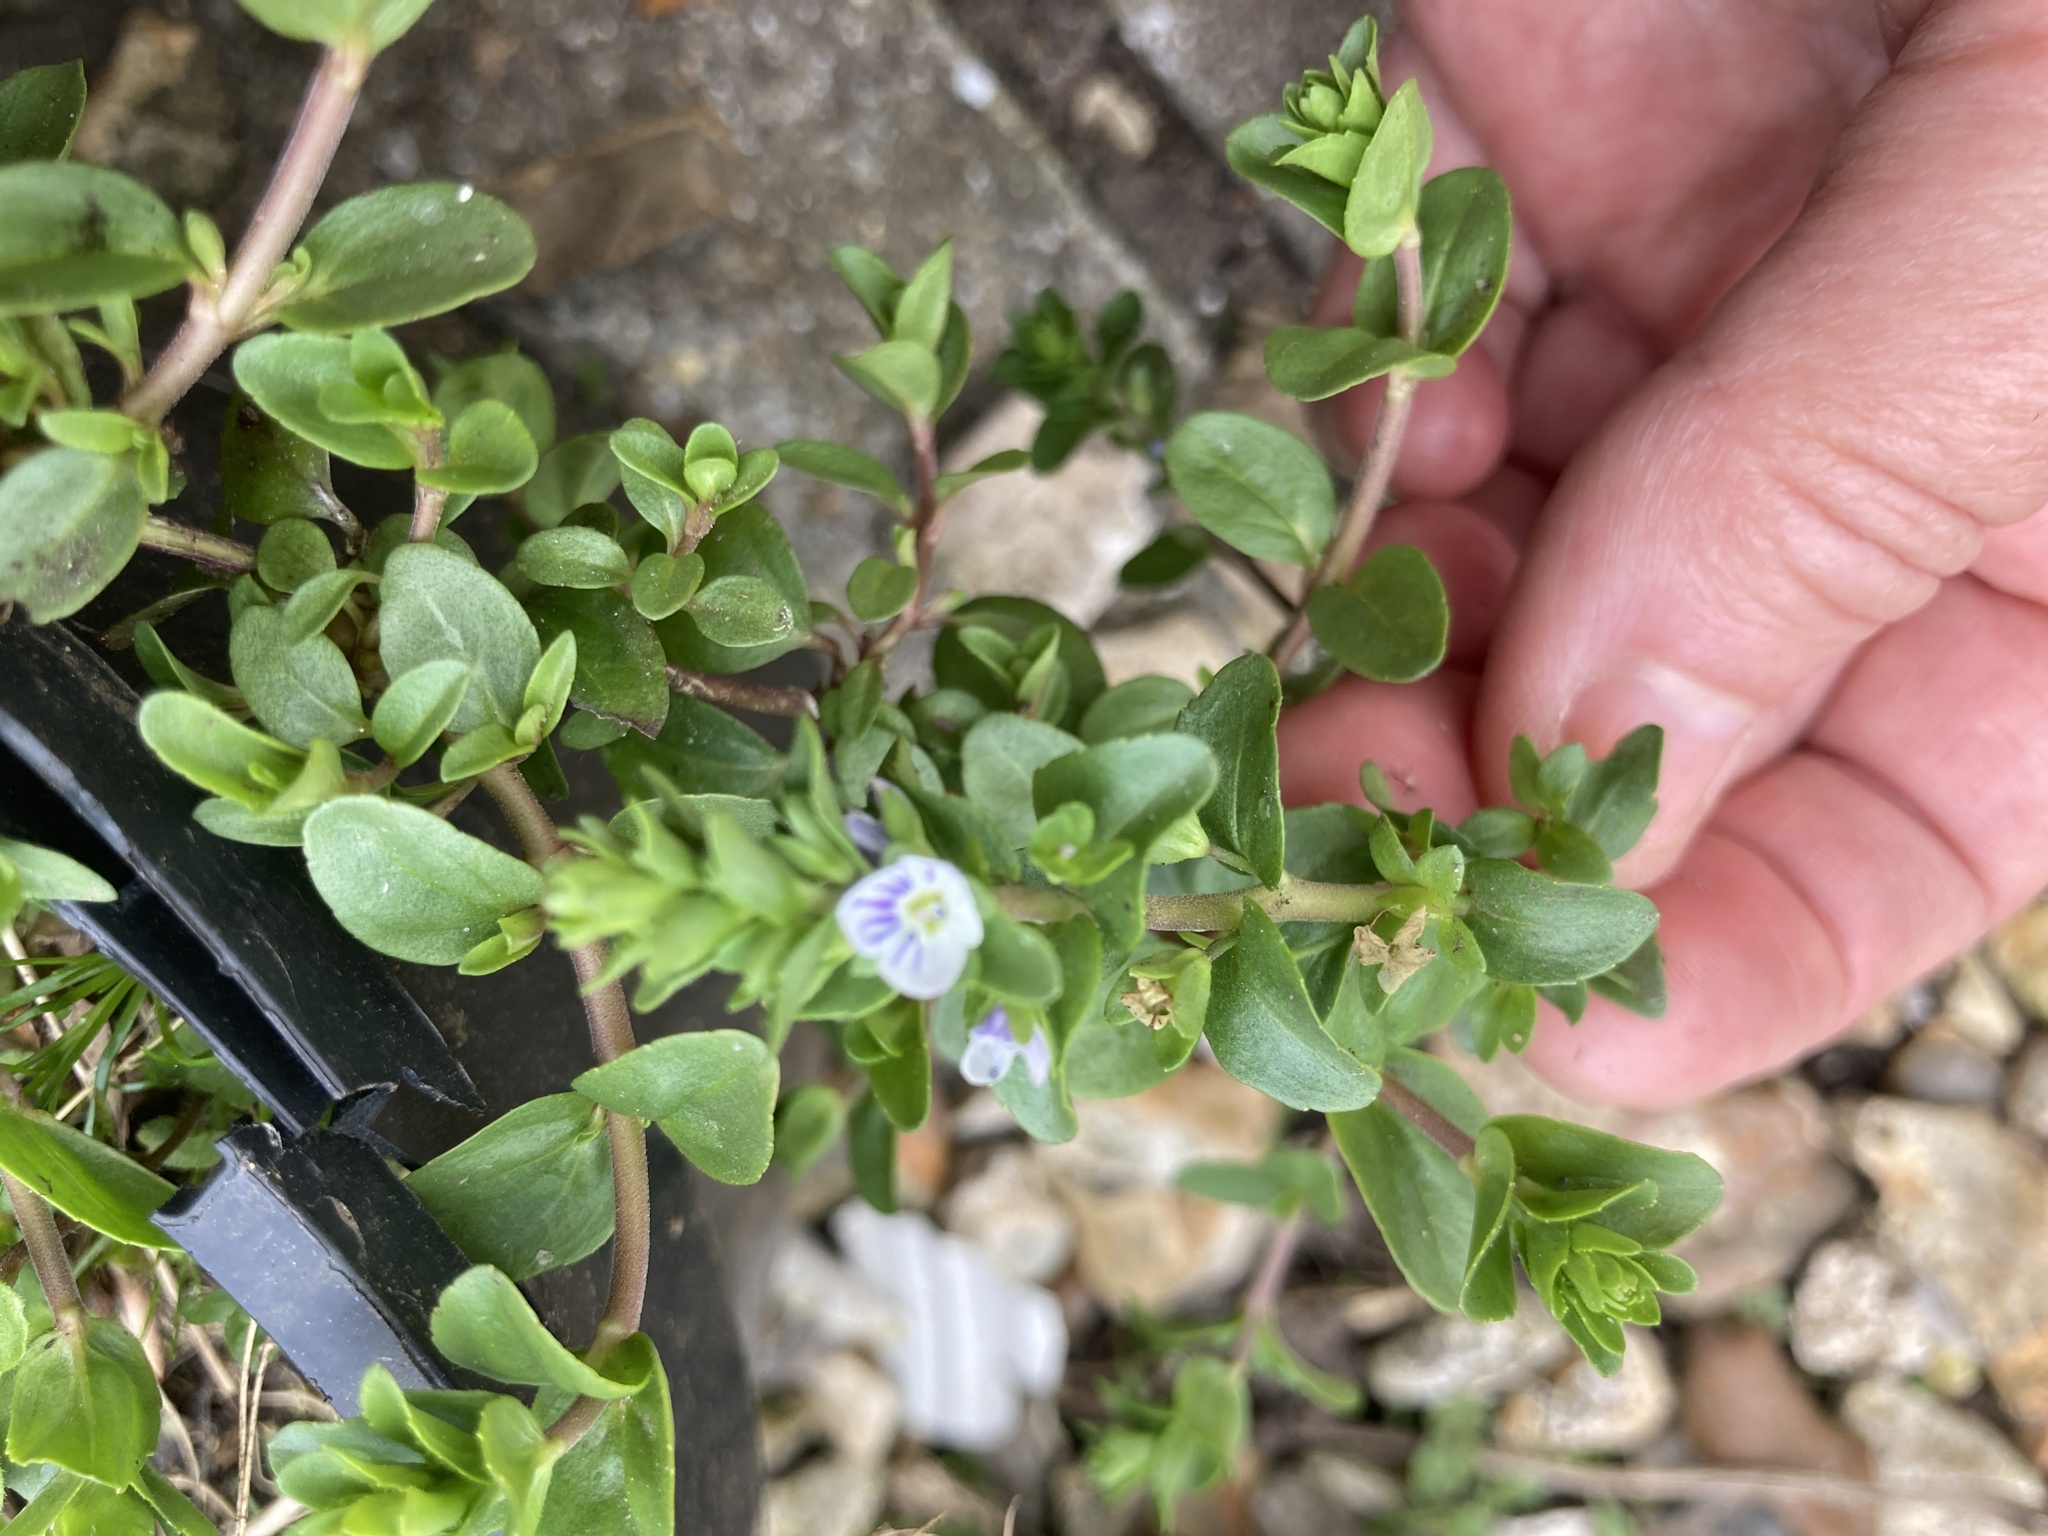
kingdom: Plantae
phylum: Tracheophyta
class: Magnoliopsida
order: Lamiales
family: Plantaginaceae
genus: Veronica
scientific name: Veronica serpyllifolia
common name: Thyme-leaved speedwell
